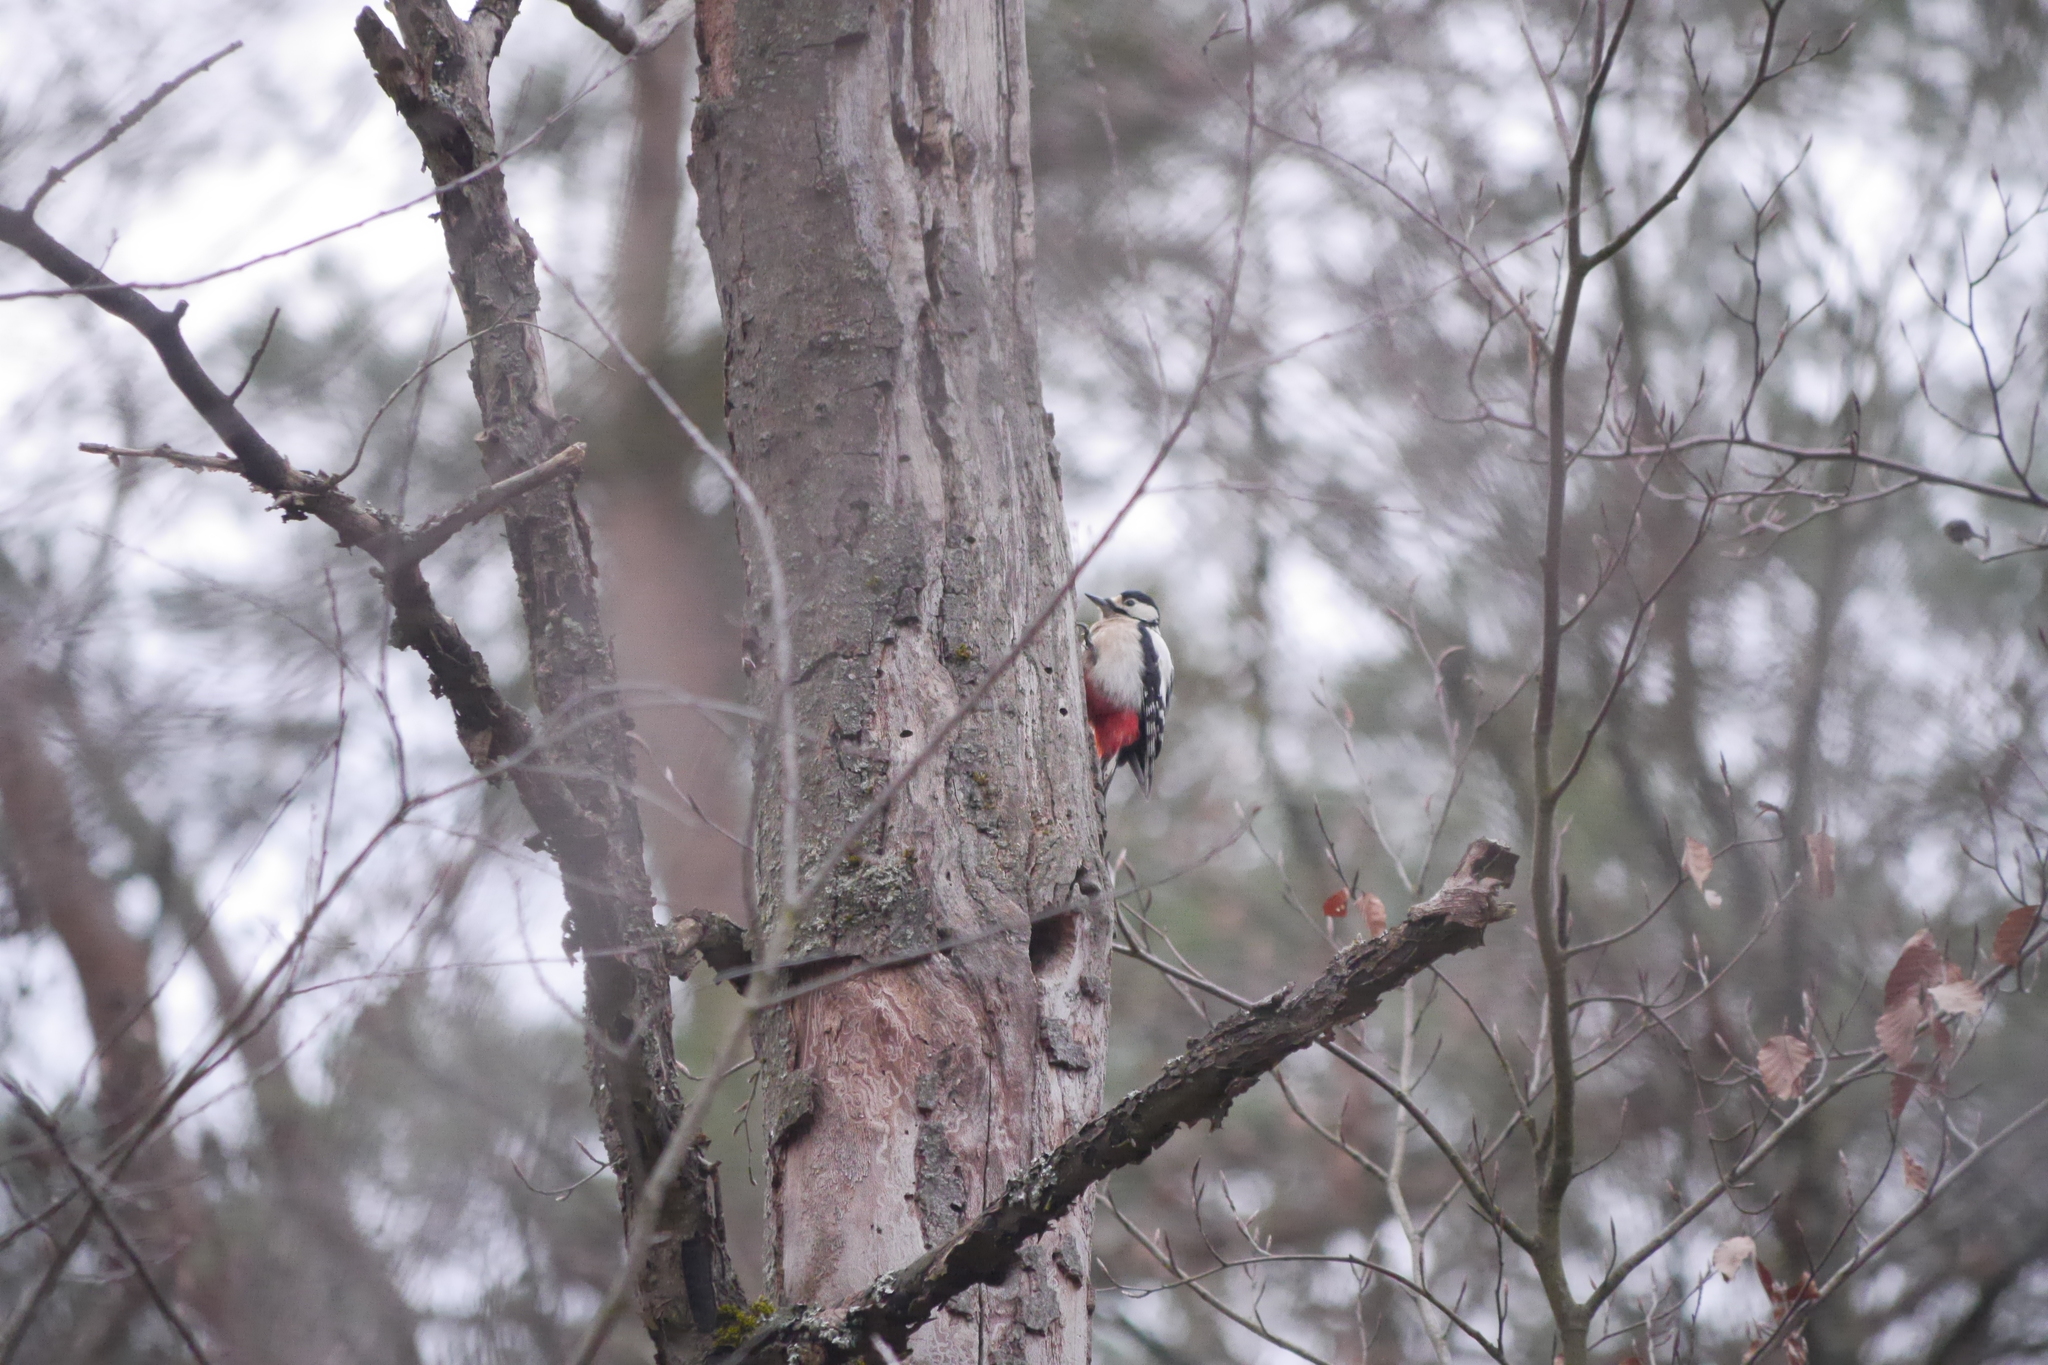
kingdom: Animalia
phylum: Chordata
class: Aves
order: Piciformes
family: Picidae
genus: Dendrocopos
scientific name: Dendrocopos major
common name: Great spotted woodpecker
